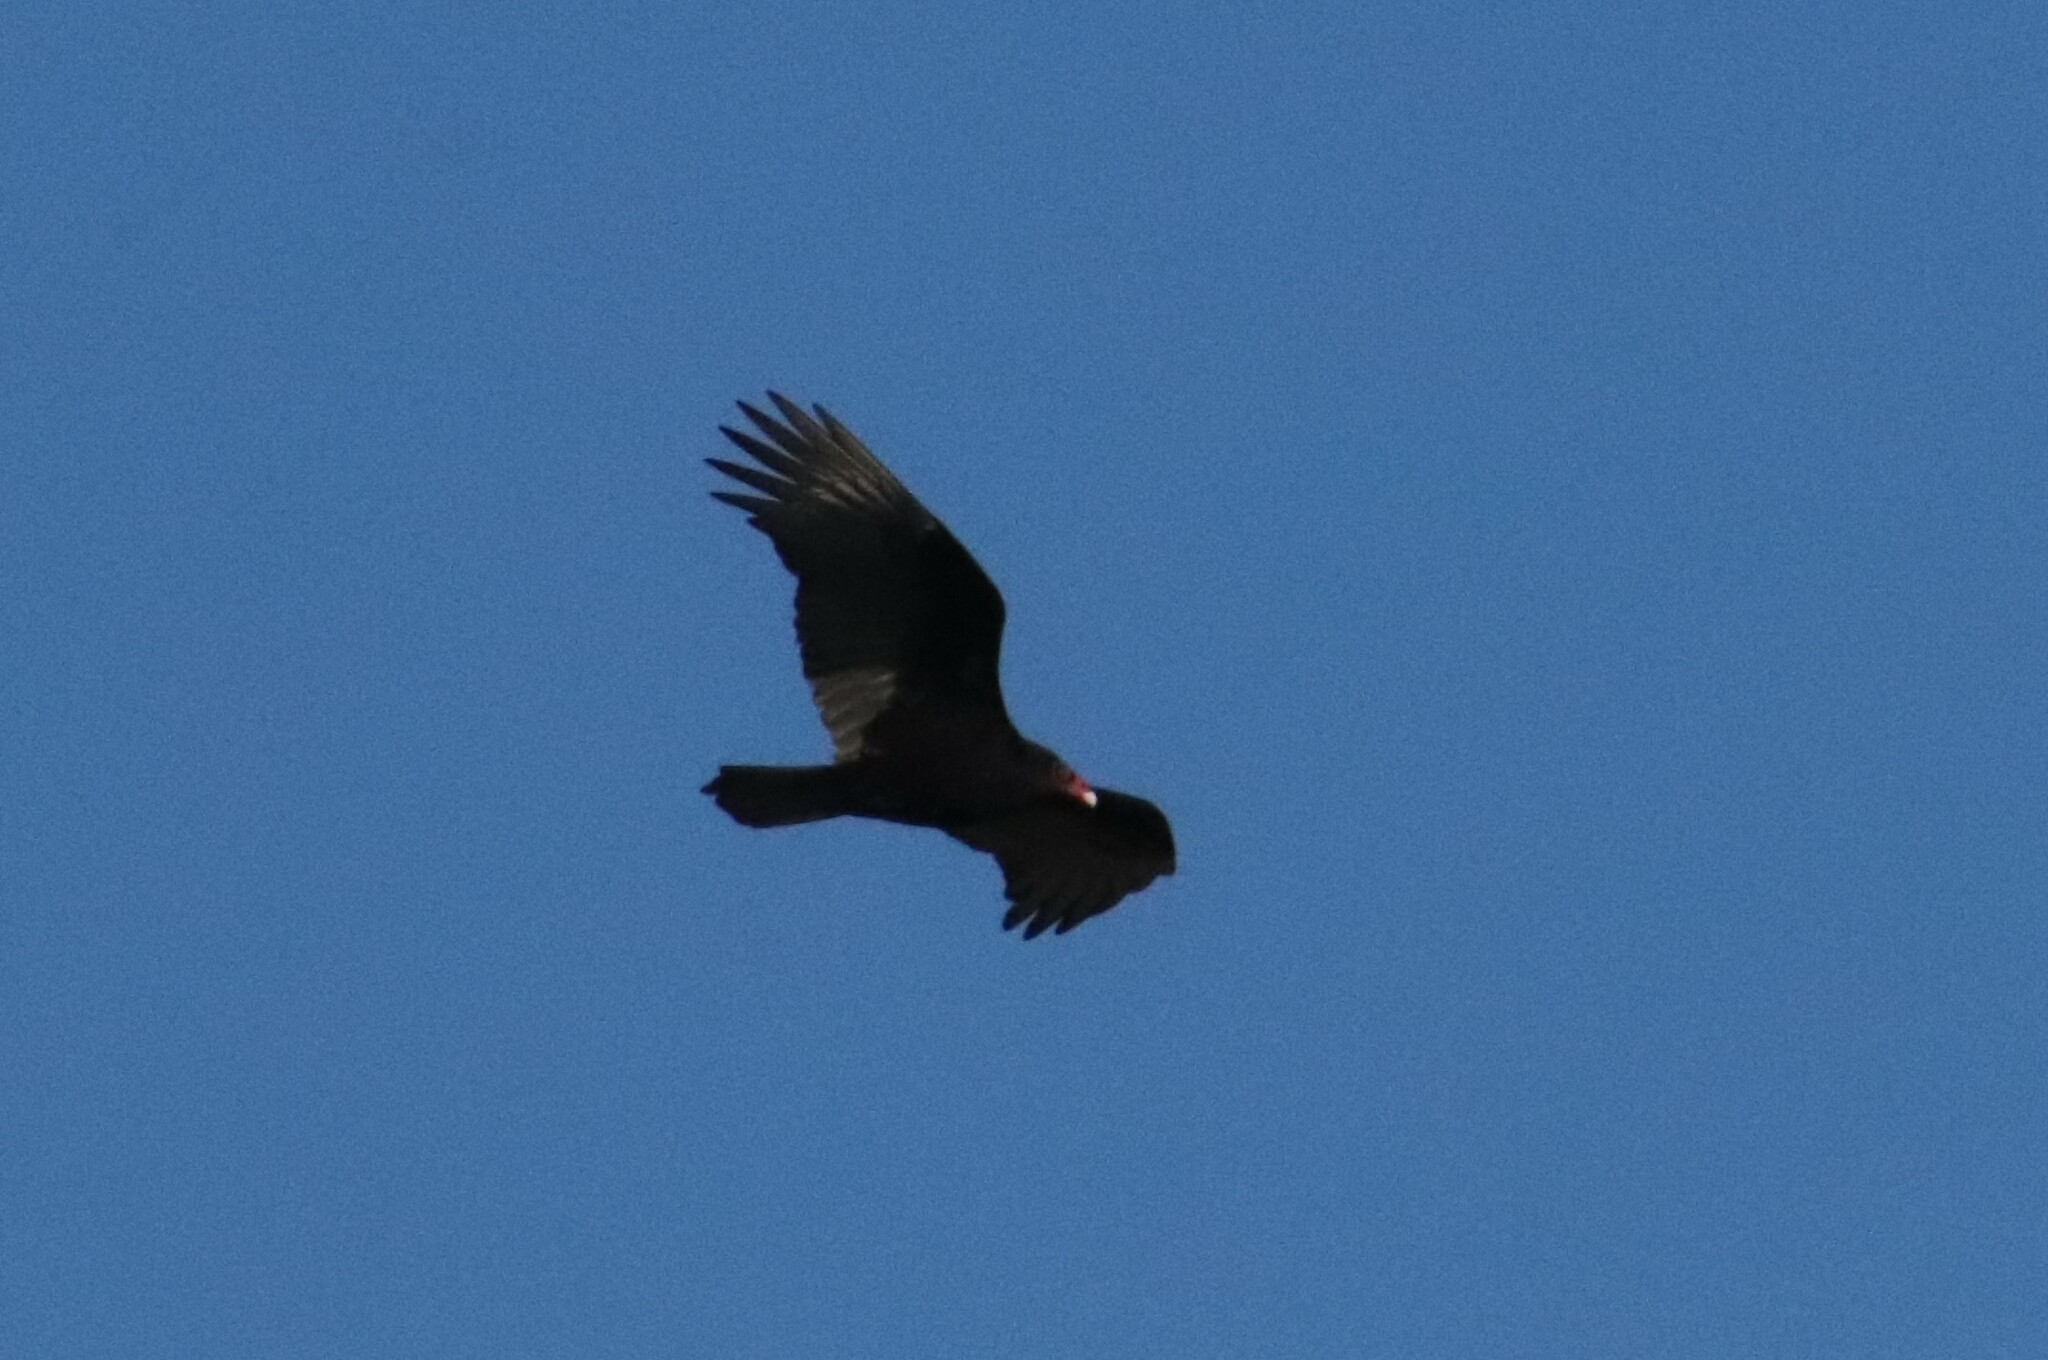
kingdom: Animalia
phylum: Chordata
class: Aves
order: Accipitriformes
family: Cathartidae
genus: Cathartes
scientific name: Cathartes aura
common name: Turkey vulture
